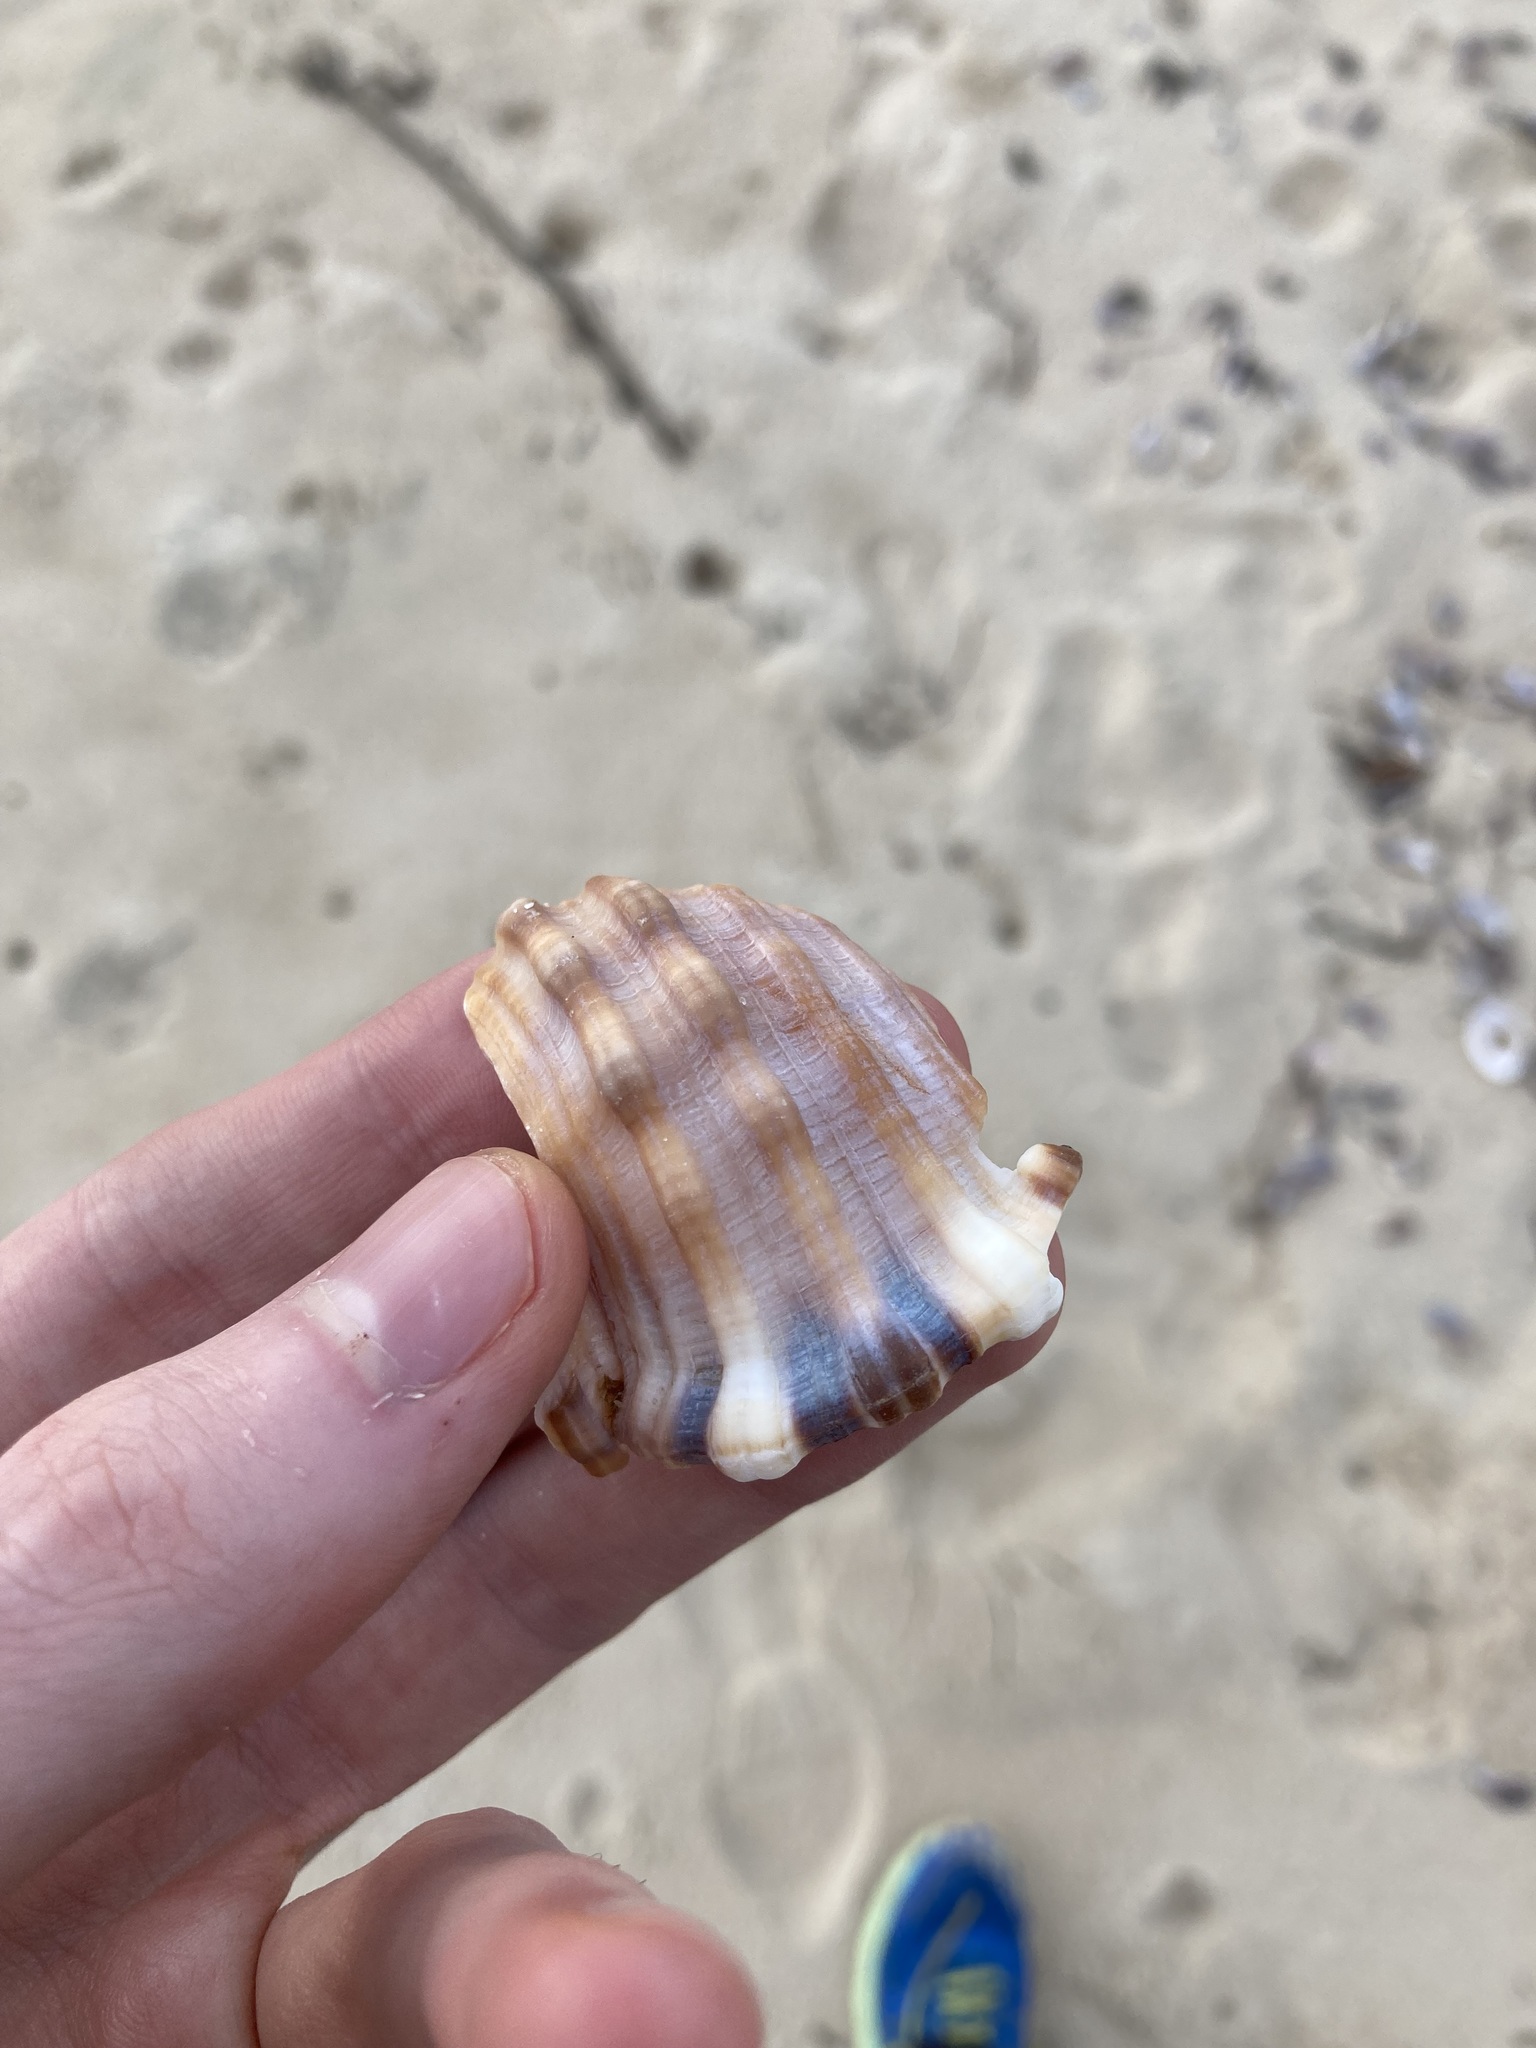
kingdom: Animalia
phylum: Mollusca
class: Gastropoda
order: Littorinimorpha
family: Cymatiidae
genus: Monoplex
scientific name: Monoplex parthenopeus
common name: Giant triton
